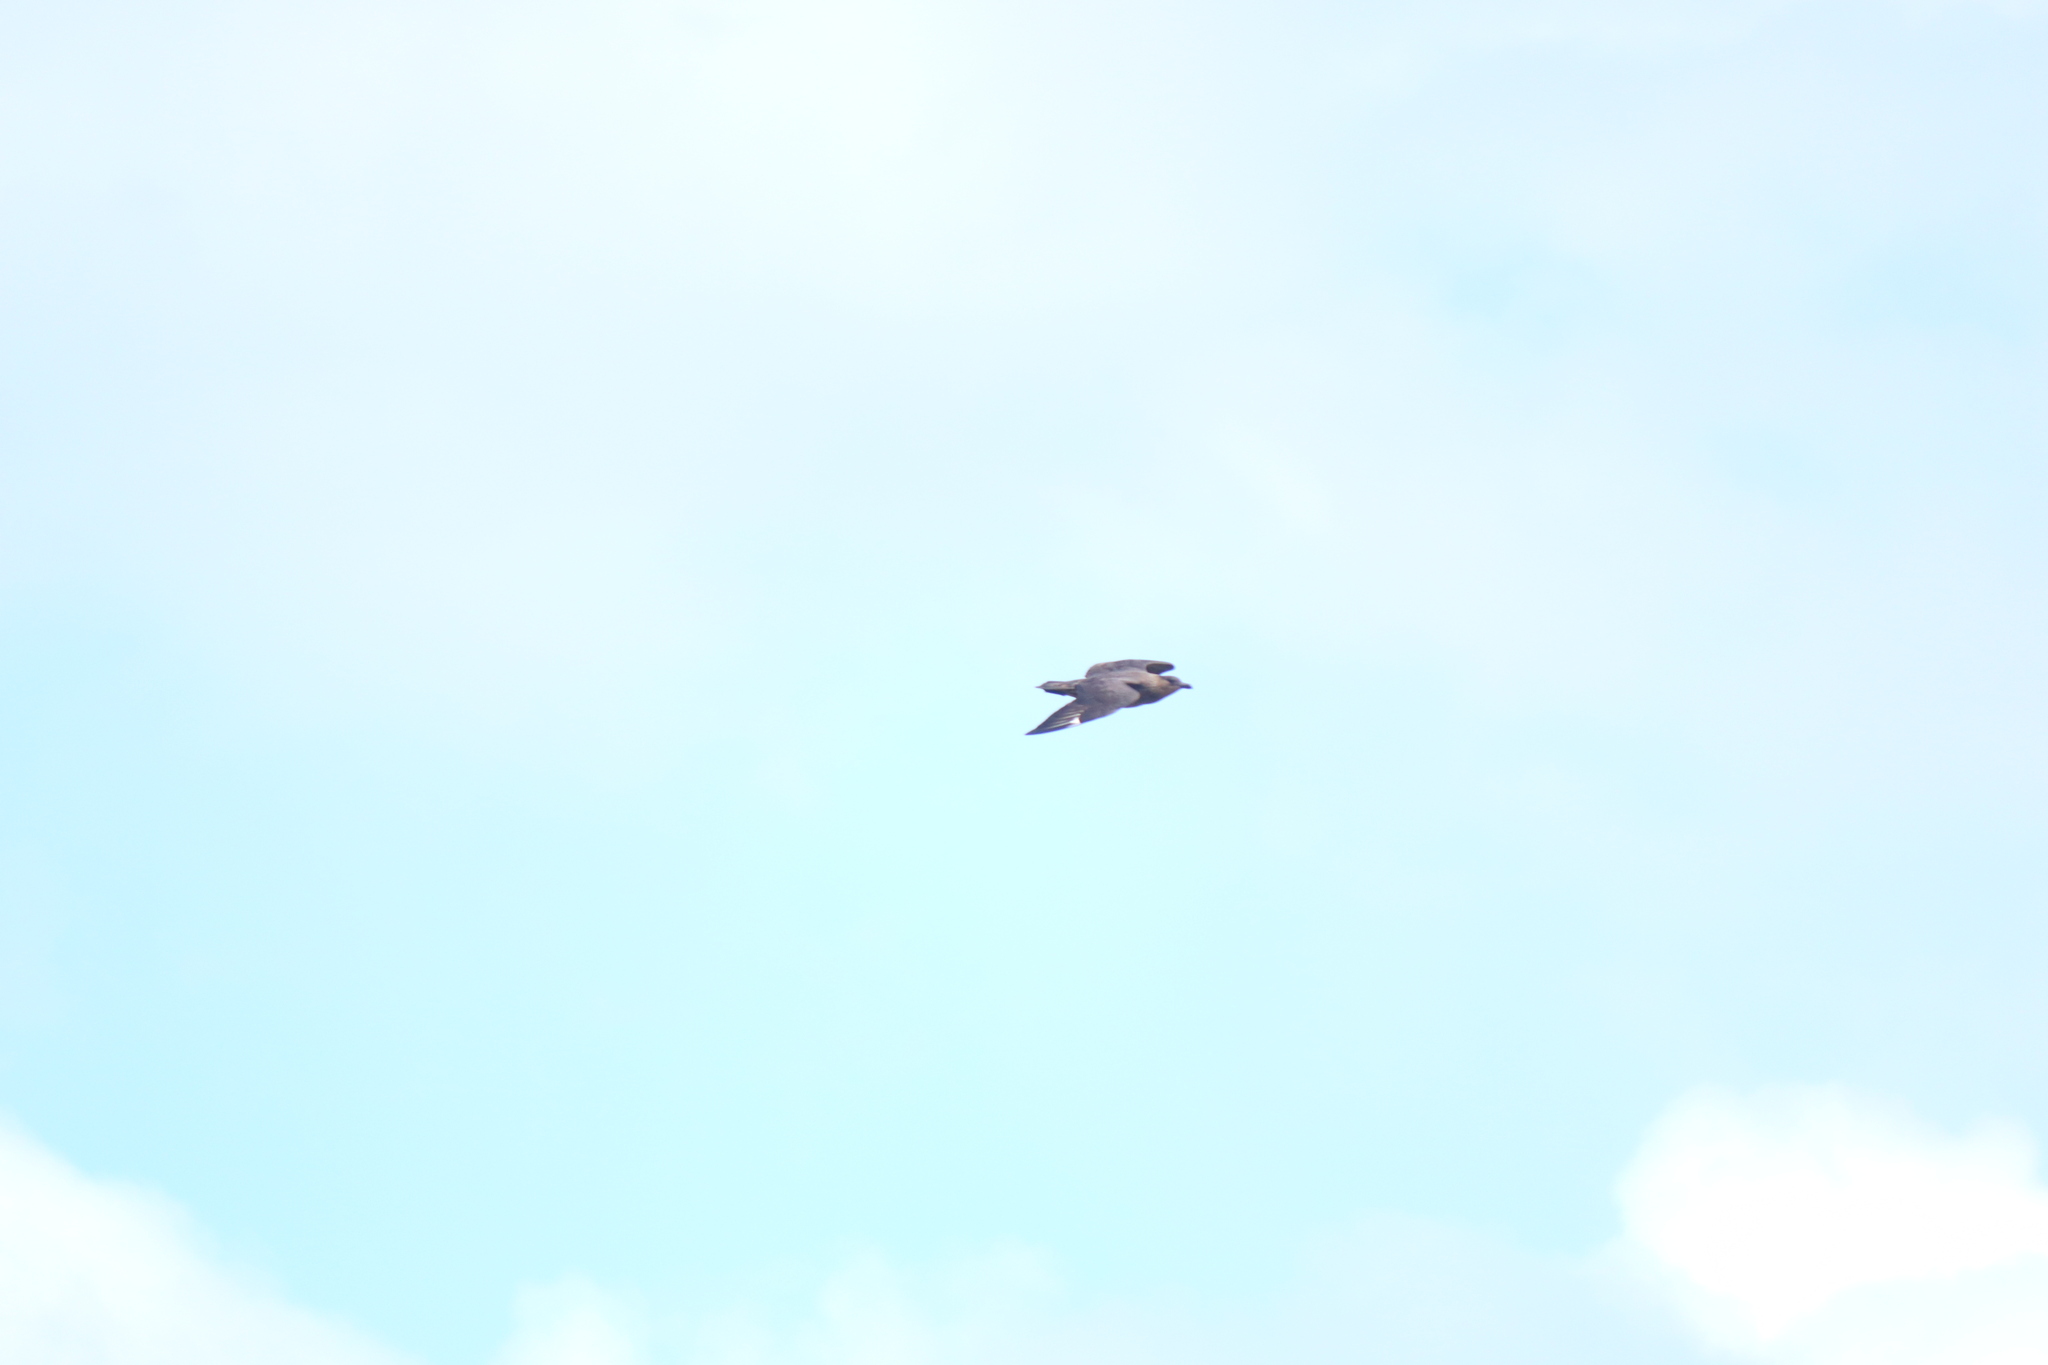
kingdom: Animalia
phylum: Chordata
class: Aves
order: Charadriiformes
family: Stercorariidae
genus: Stercorarius
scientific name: Stercorarius chilensis
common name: Chilean skua
